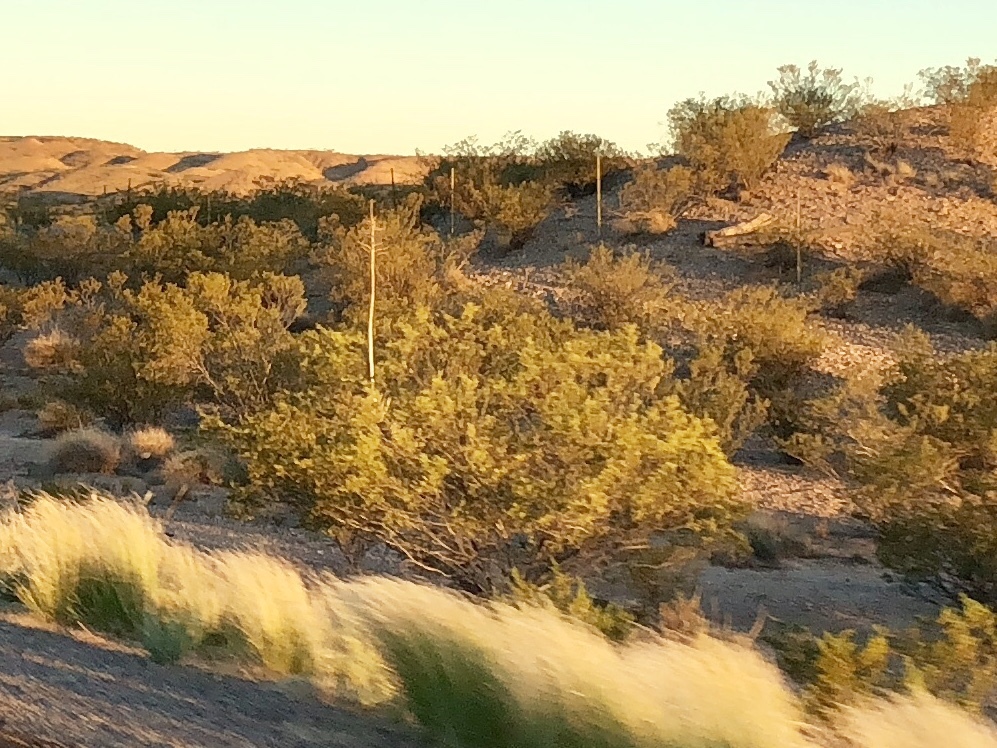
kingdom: Plantae
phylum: Tracheophyta
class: Magnoliopsida
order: Zygophyllales
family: Zygophyllaceae
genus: Larrea
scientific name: Larrea tridentata
